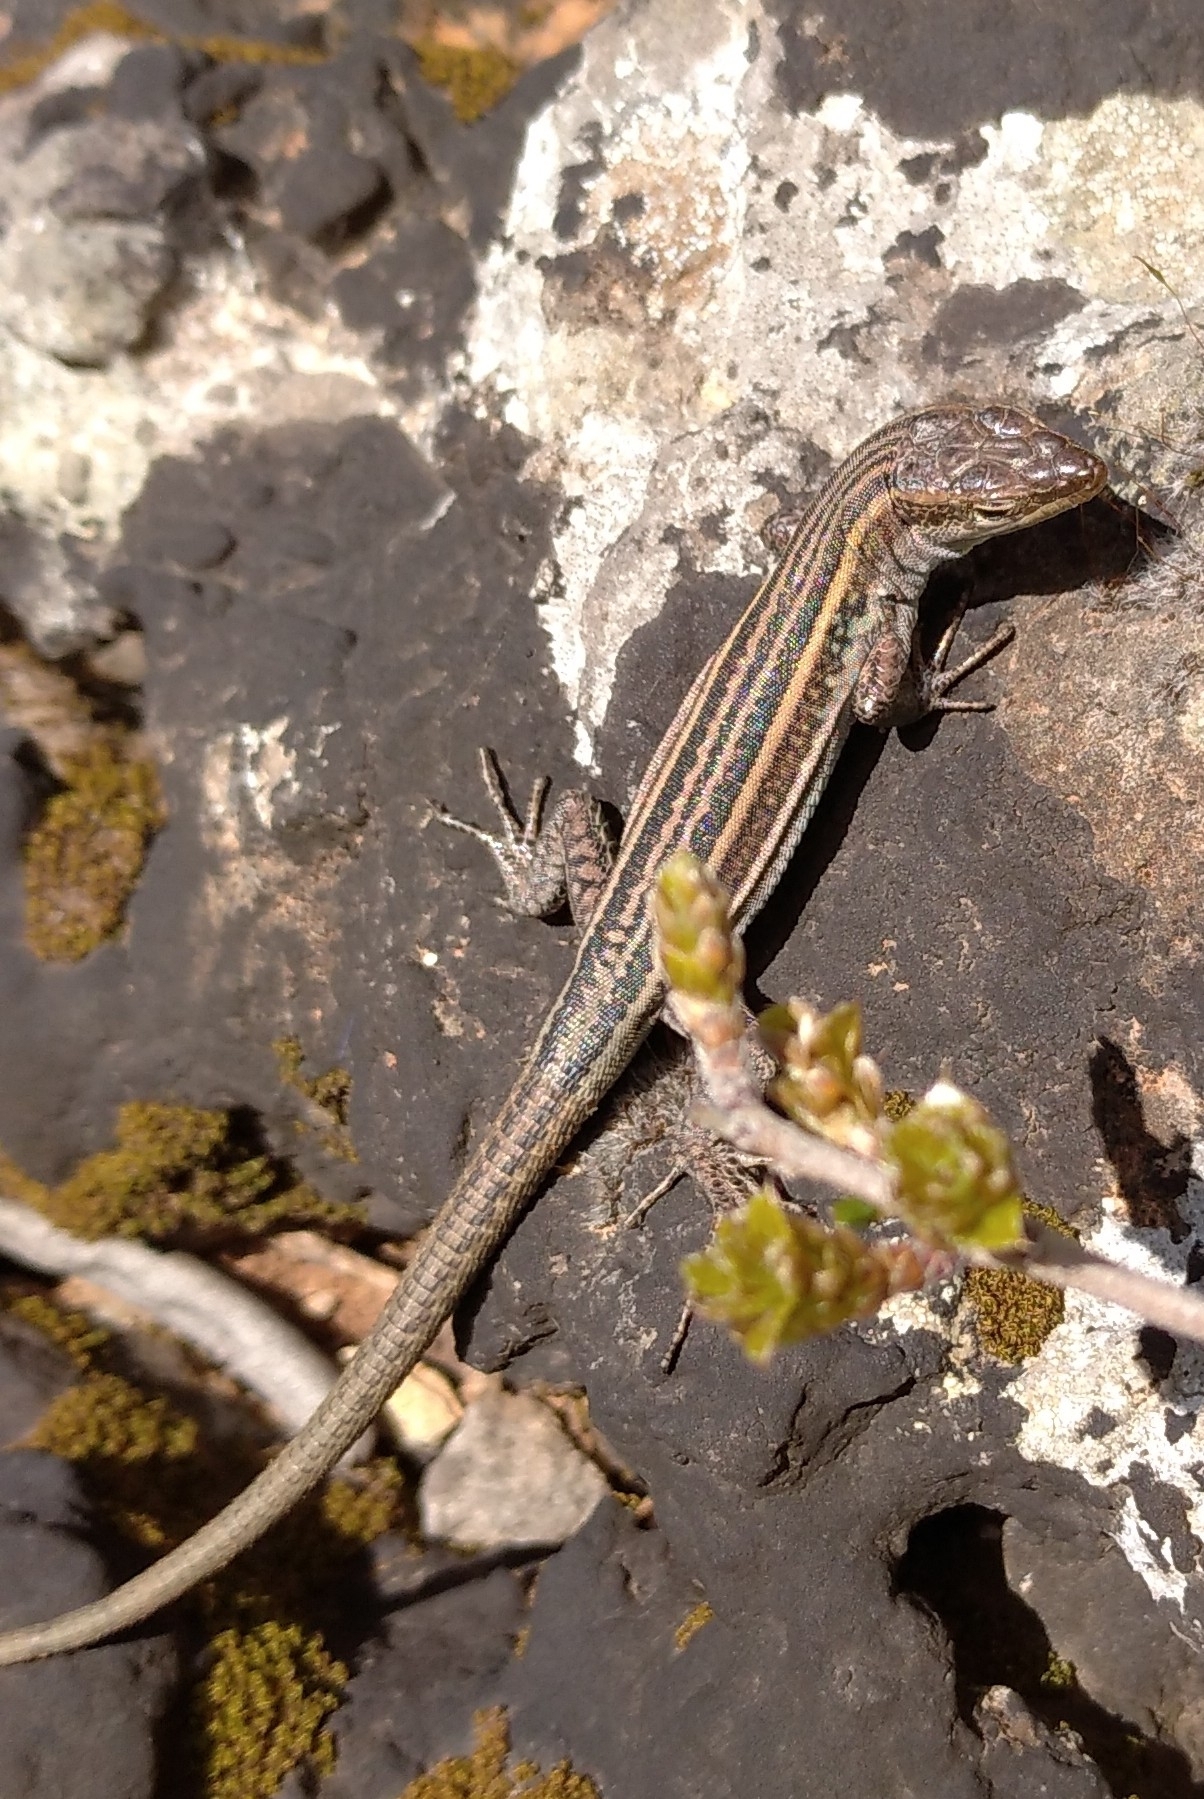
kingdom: Animalia
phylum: Chordata
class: Squamata
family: Lacertidae
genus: Podarcis
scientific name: Podarcis peloponnesiacus
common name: Peloponnese wall lizard
